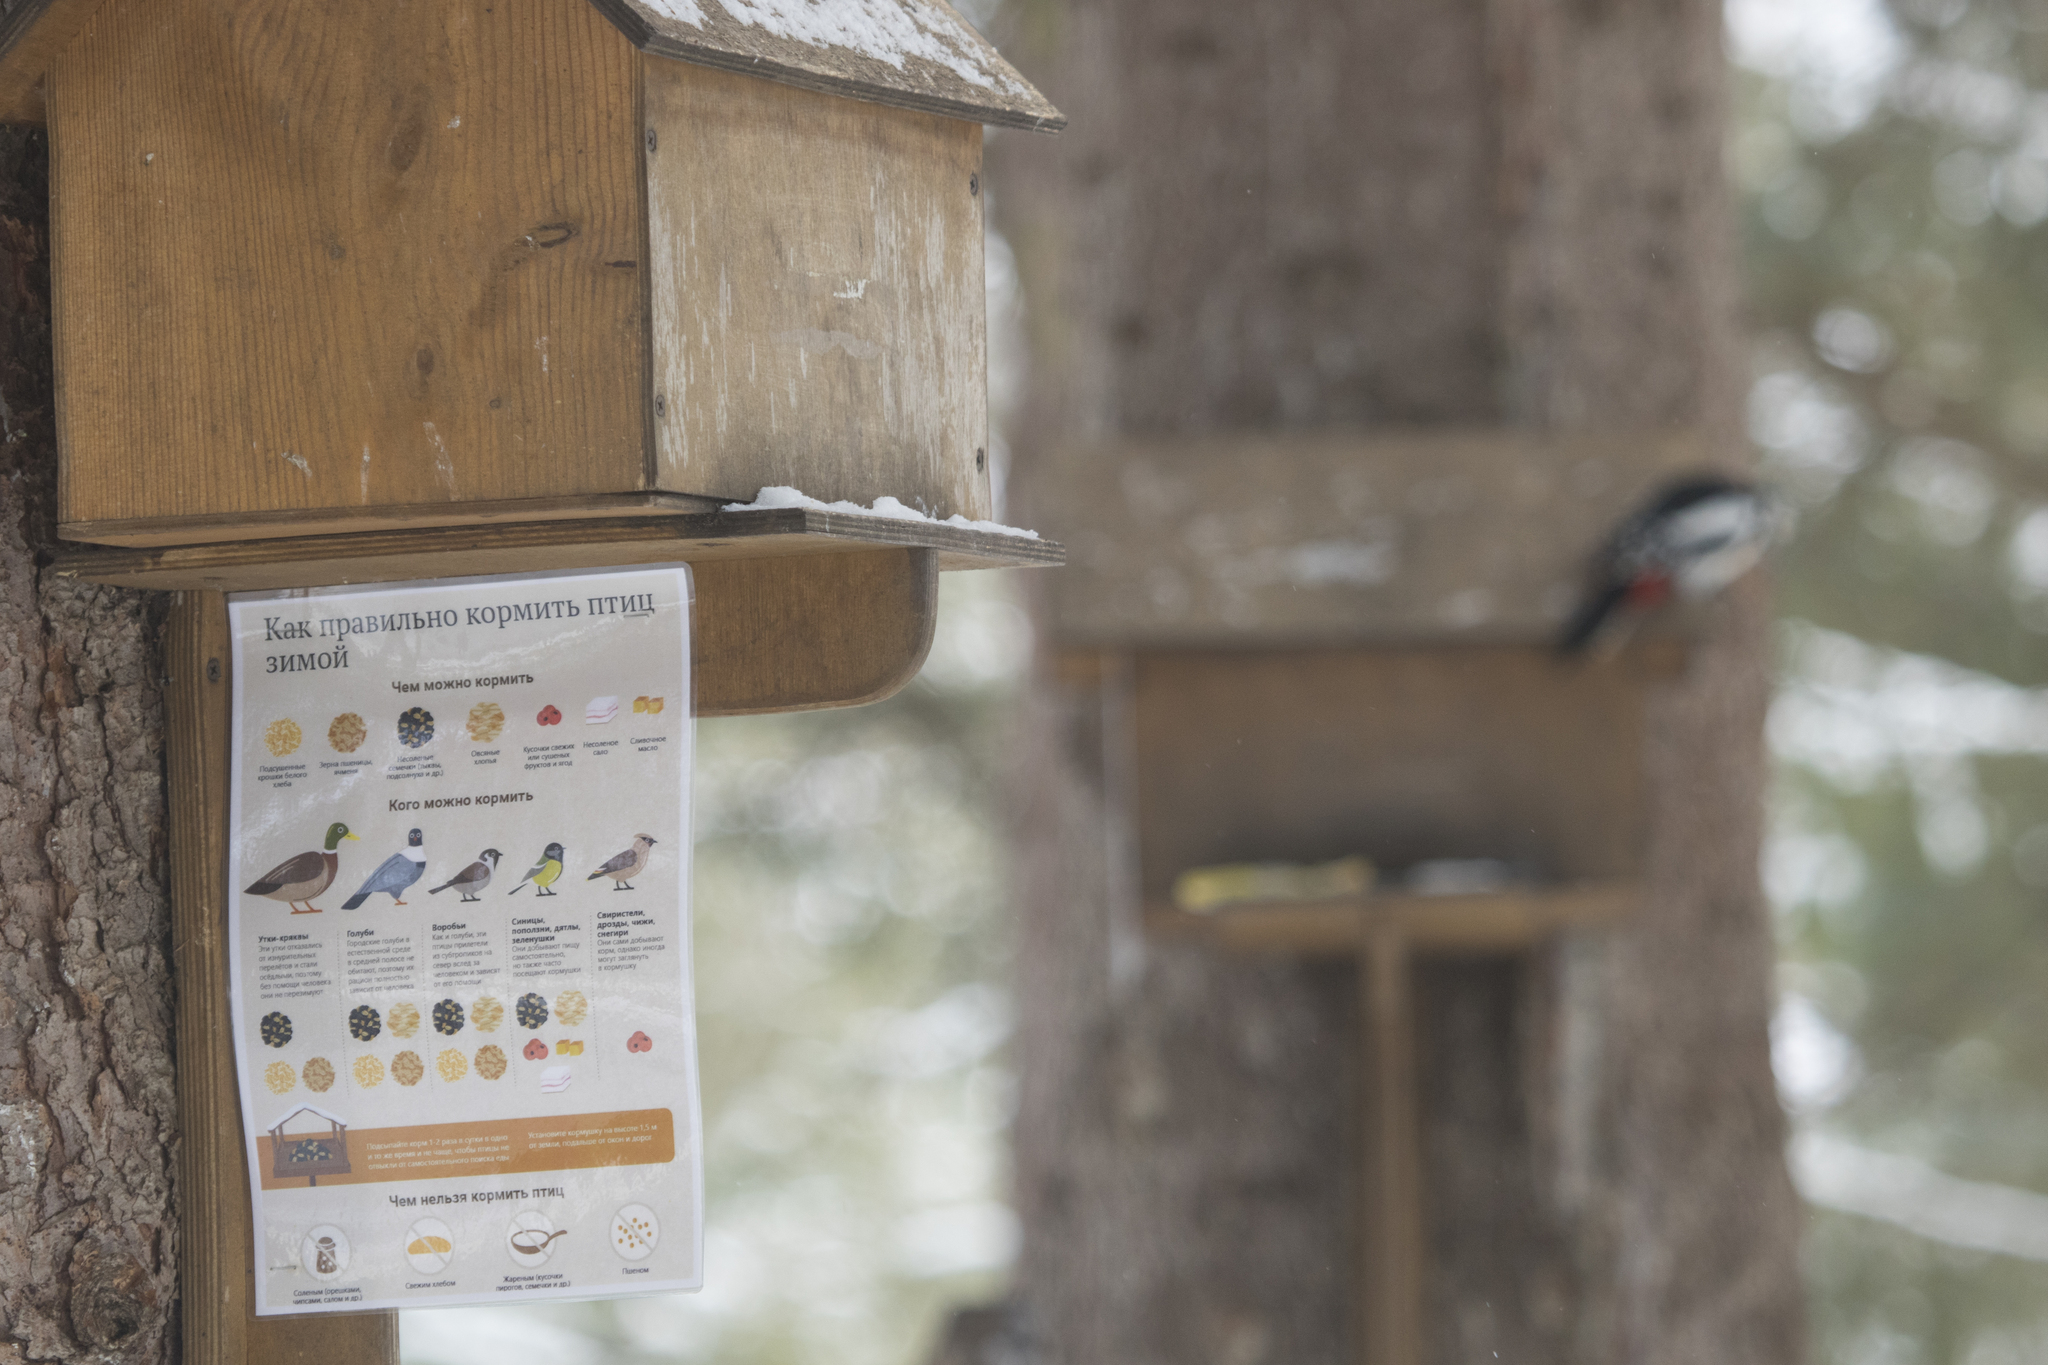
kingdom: Animalia
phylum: Chordata
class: Aves
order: Piciformes
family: Picidae
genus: Dendrocopos
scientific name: Dendrocopos major
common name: Great spotted woodpecker
